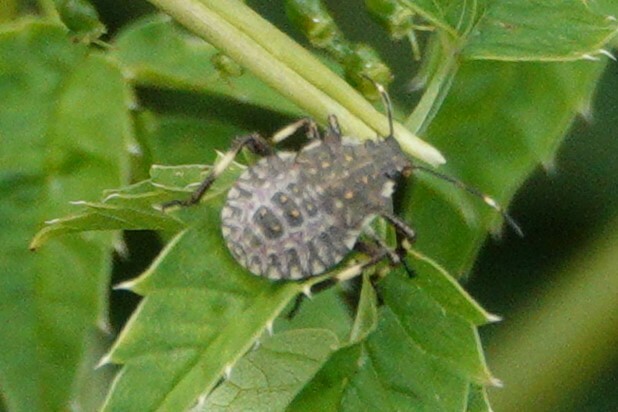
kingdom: Animalia
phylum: Arthropoda
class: Insecta
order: Odonata
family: Calopterygidae
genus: Calopteryx
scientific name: Calopteryx maculata
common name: Ebony jewelwing
